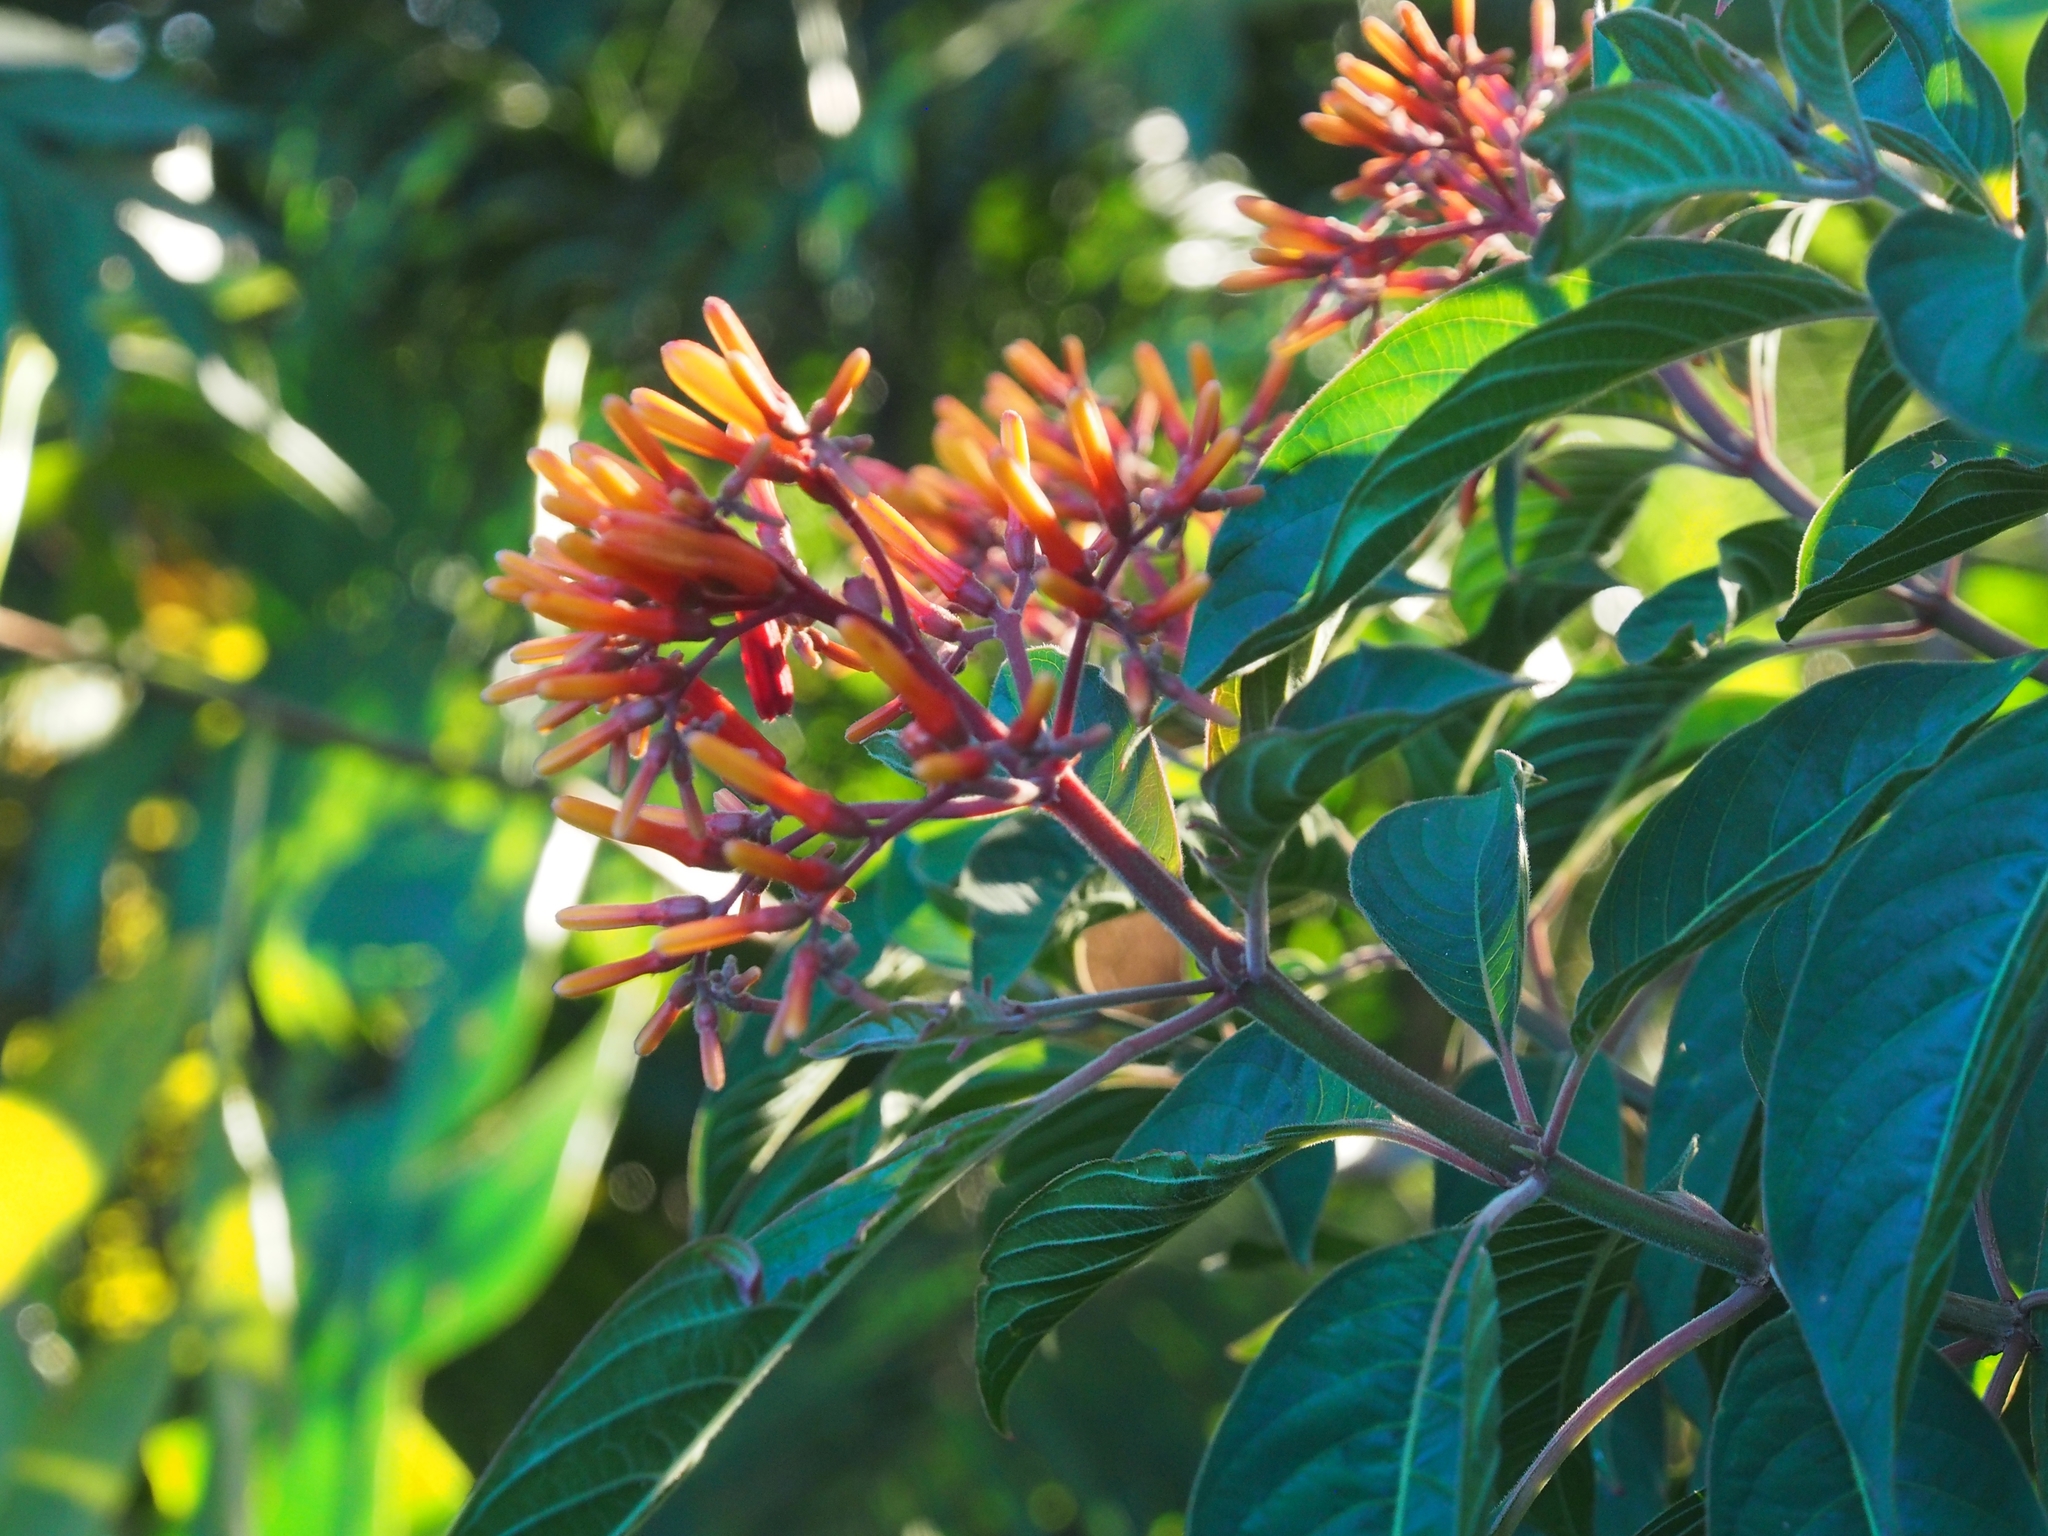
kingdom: Plantae
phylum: Tracheophyta
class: Magnoliopsida
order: Gentianales
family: Rubiaceae
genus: Hamelia
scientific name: Hamelia patens
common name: Redhead
